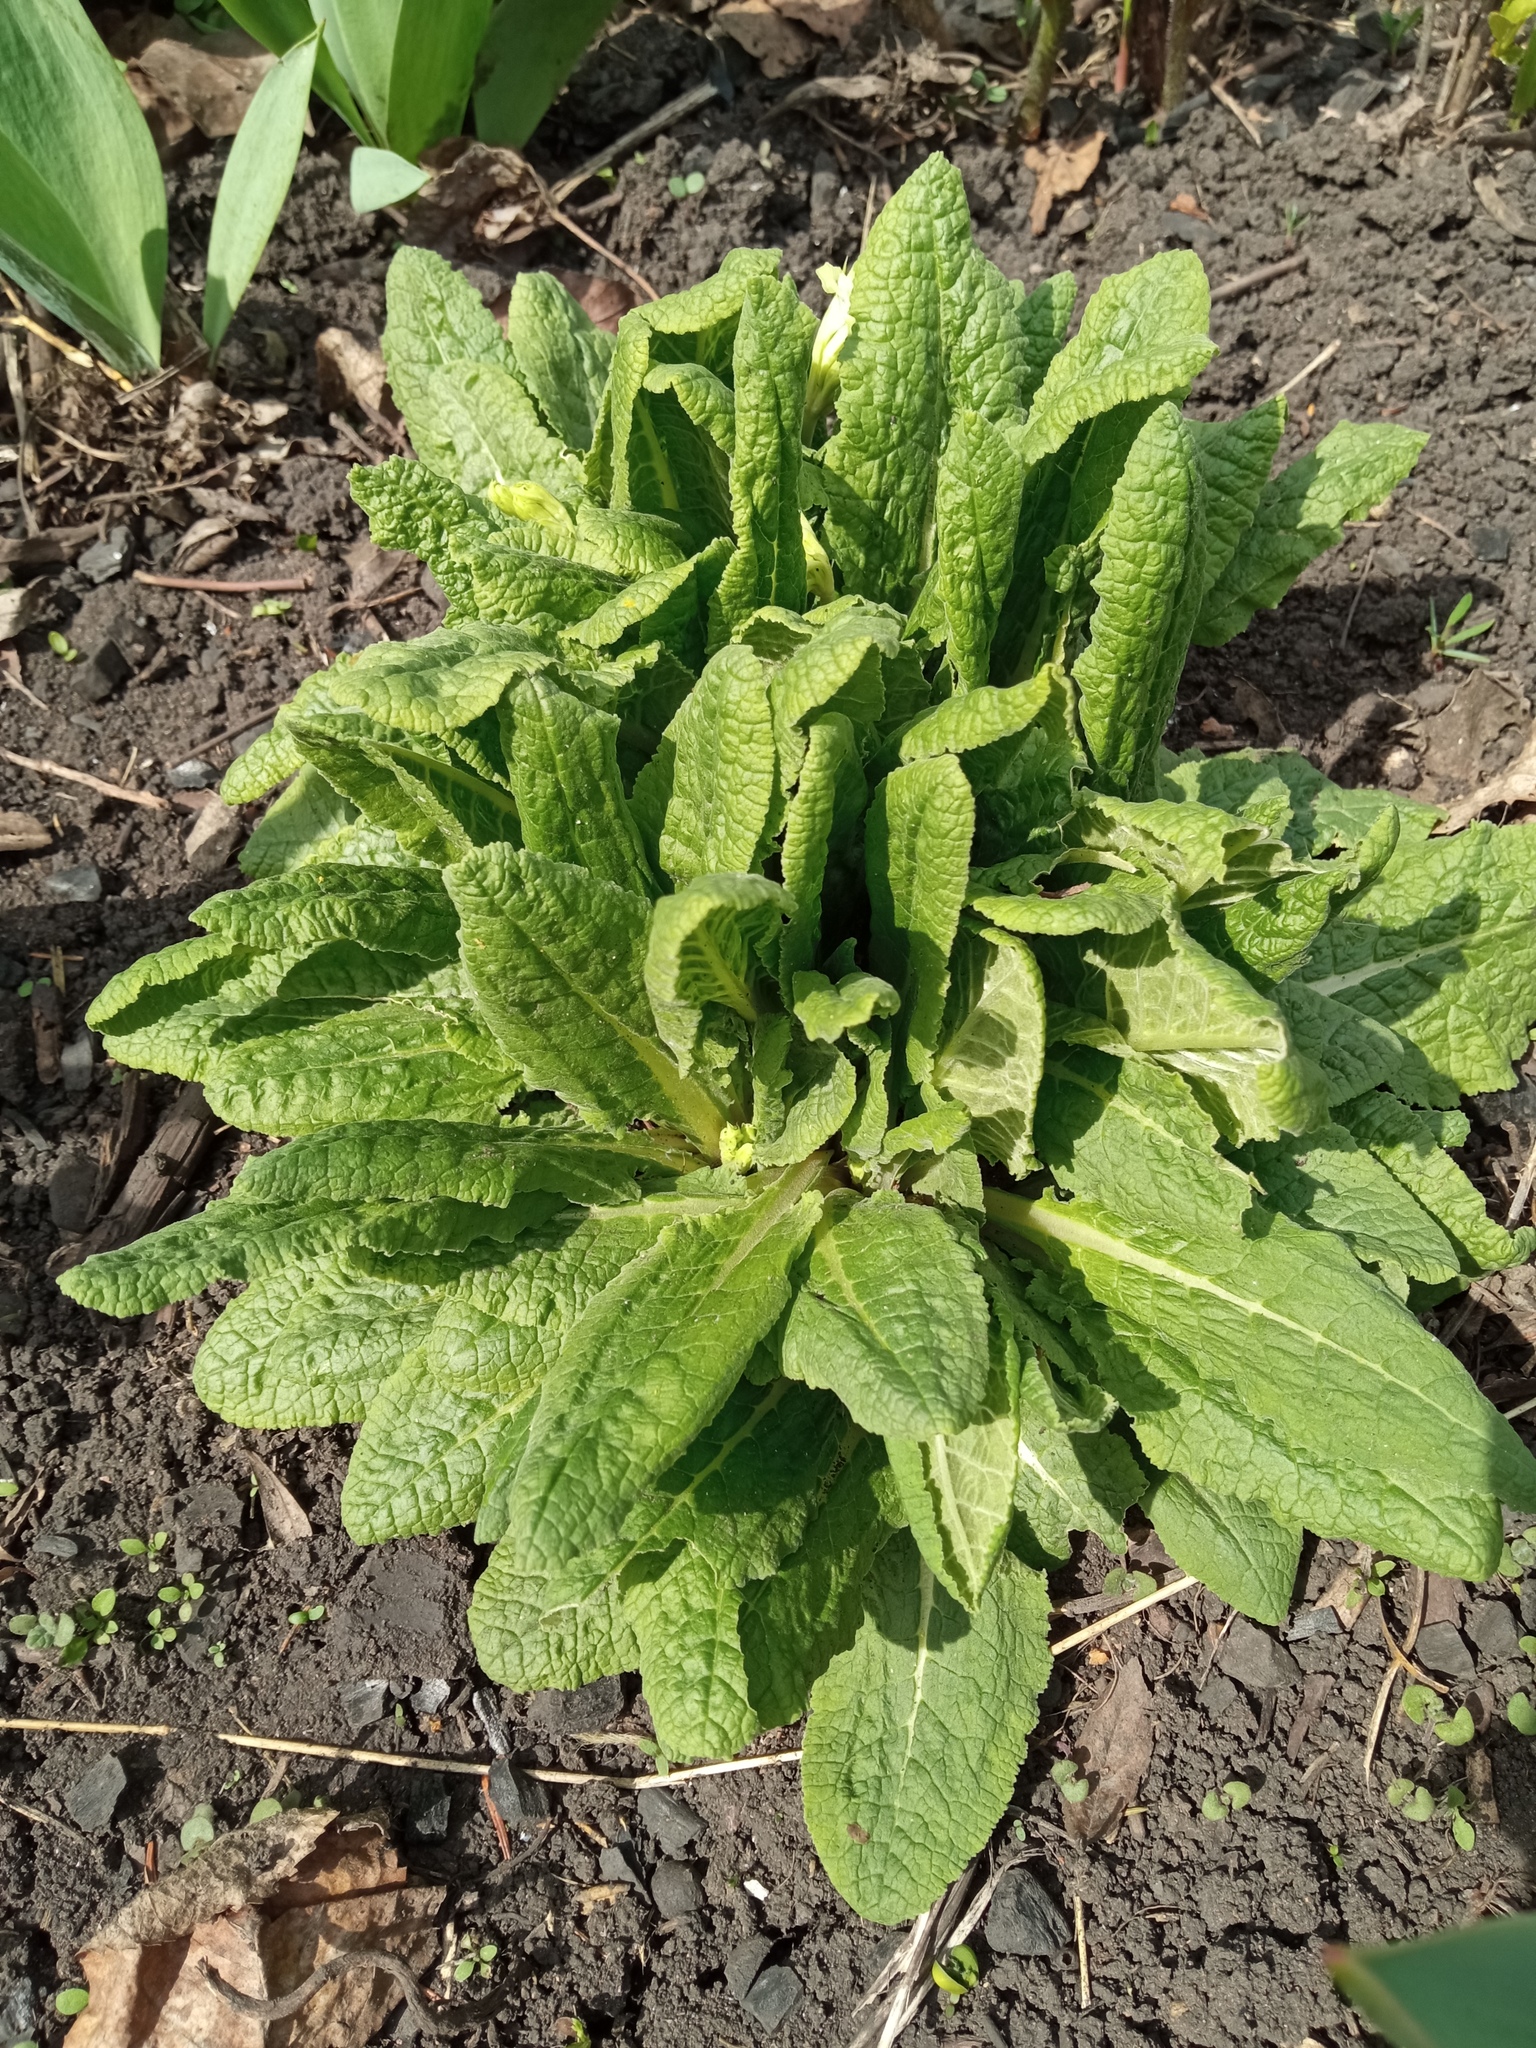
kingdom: Plantae
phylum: Tracheophyta
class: Magnoliopsida
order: Ericales
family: Primulaceae
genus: Primula
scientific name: Primula veris
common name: Cowslip
